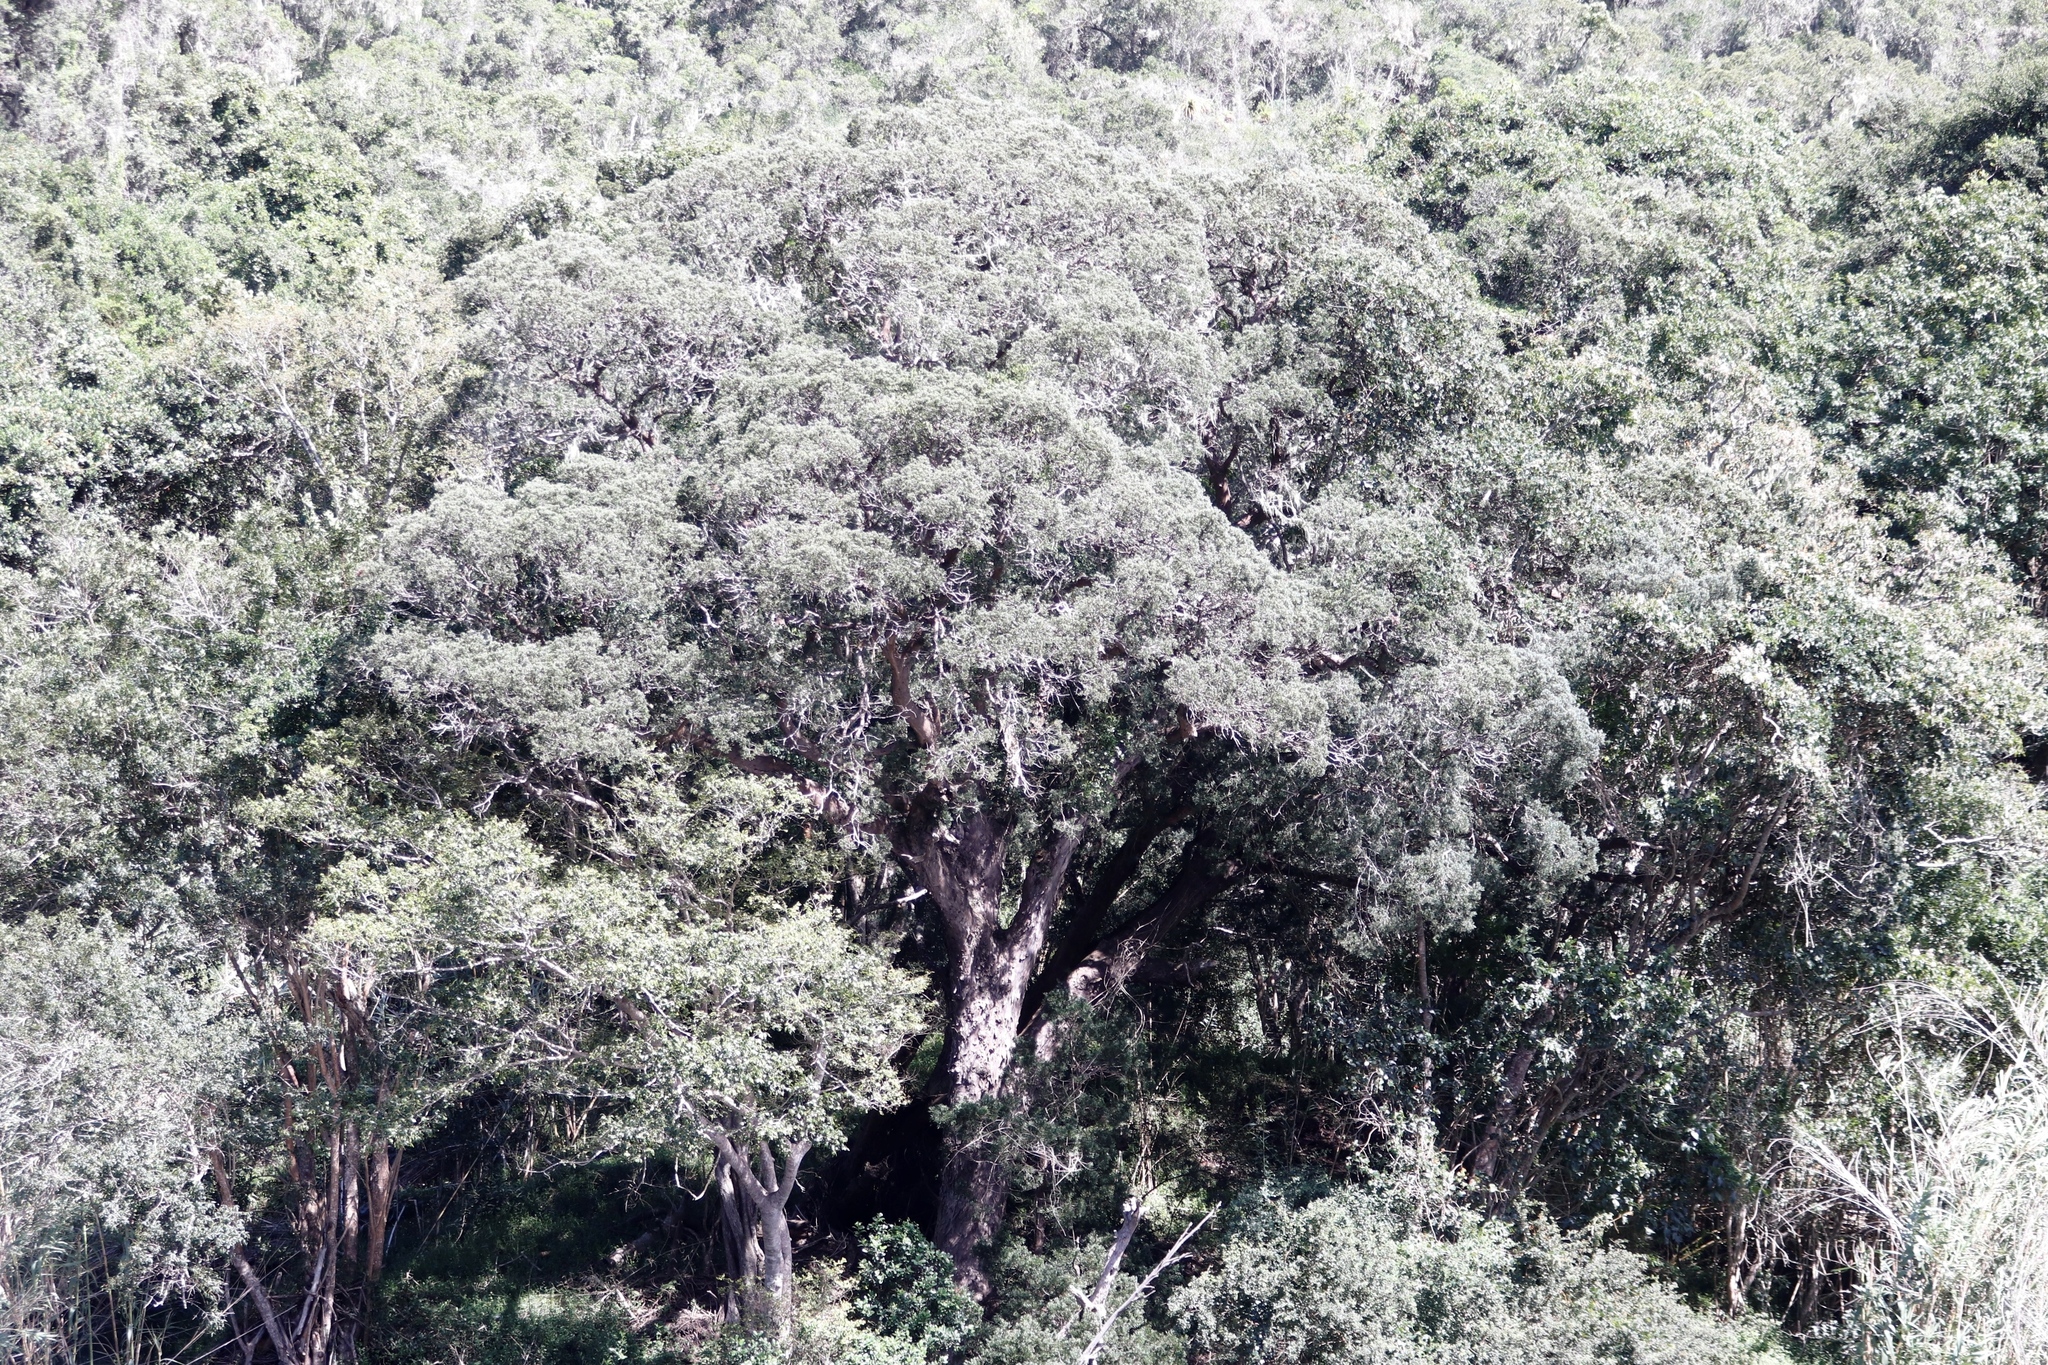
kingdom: Plantae
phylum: Tracheophyta
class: Pinopsida
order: Pinales
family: Podocarpaceae
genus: Afrocarpus
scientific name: Afrocarpus falcatus
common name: Bastard yellowwood
